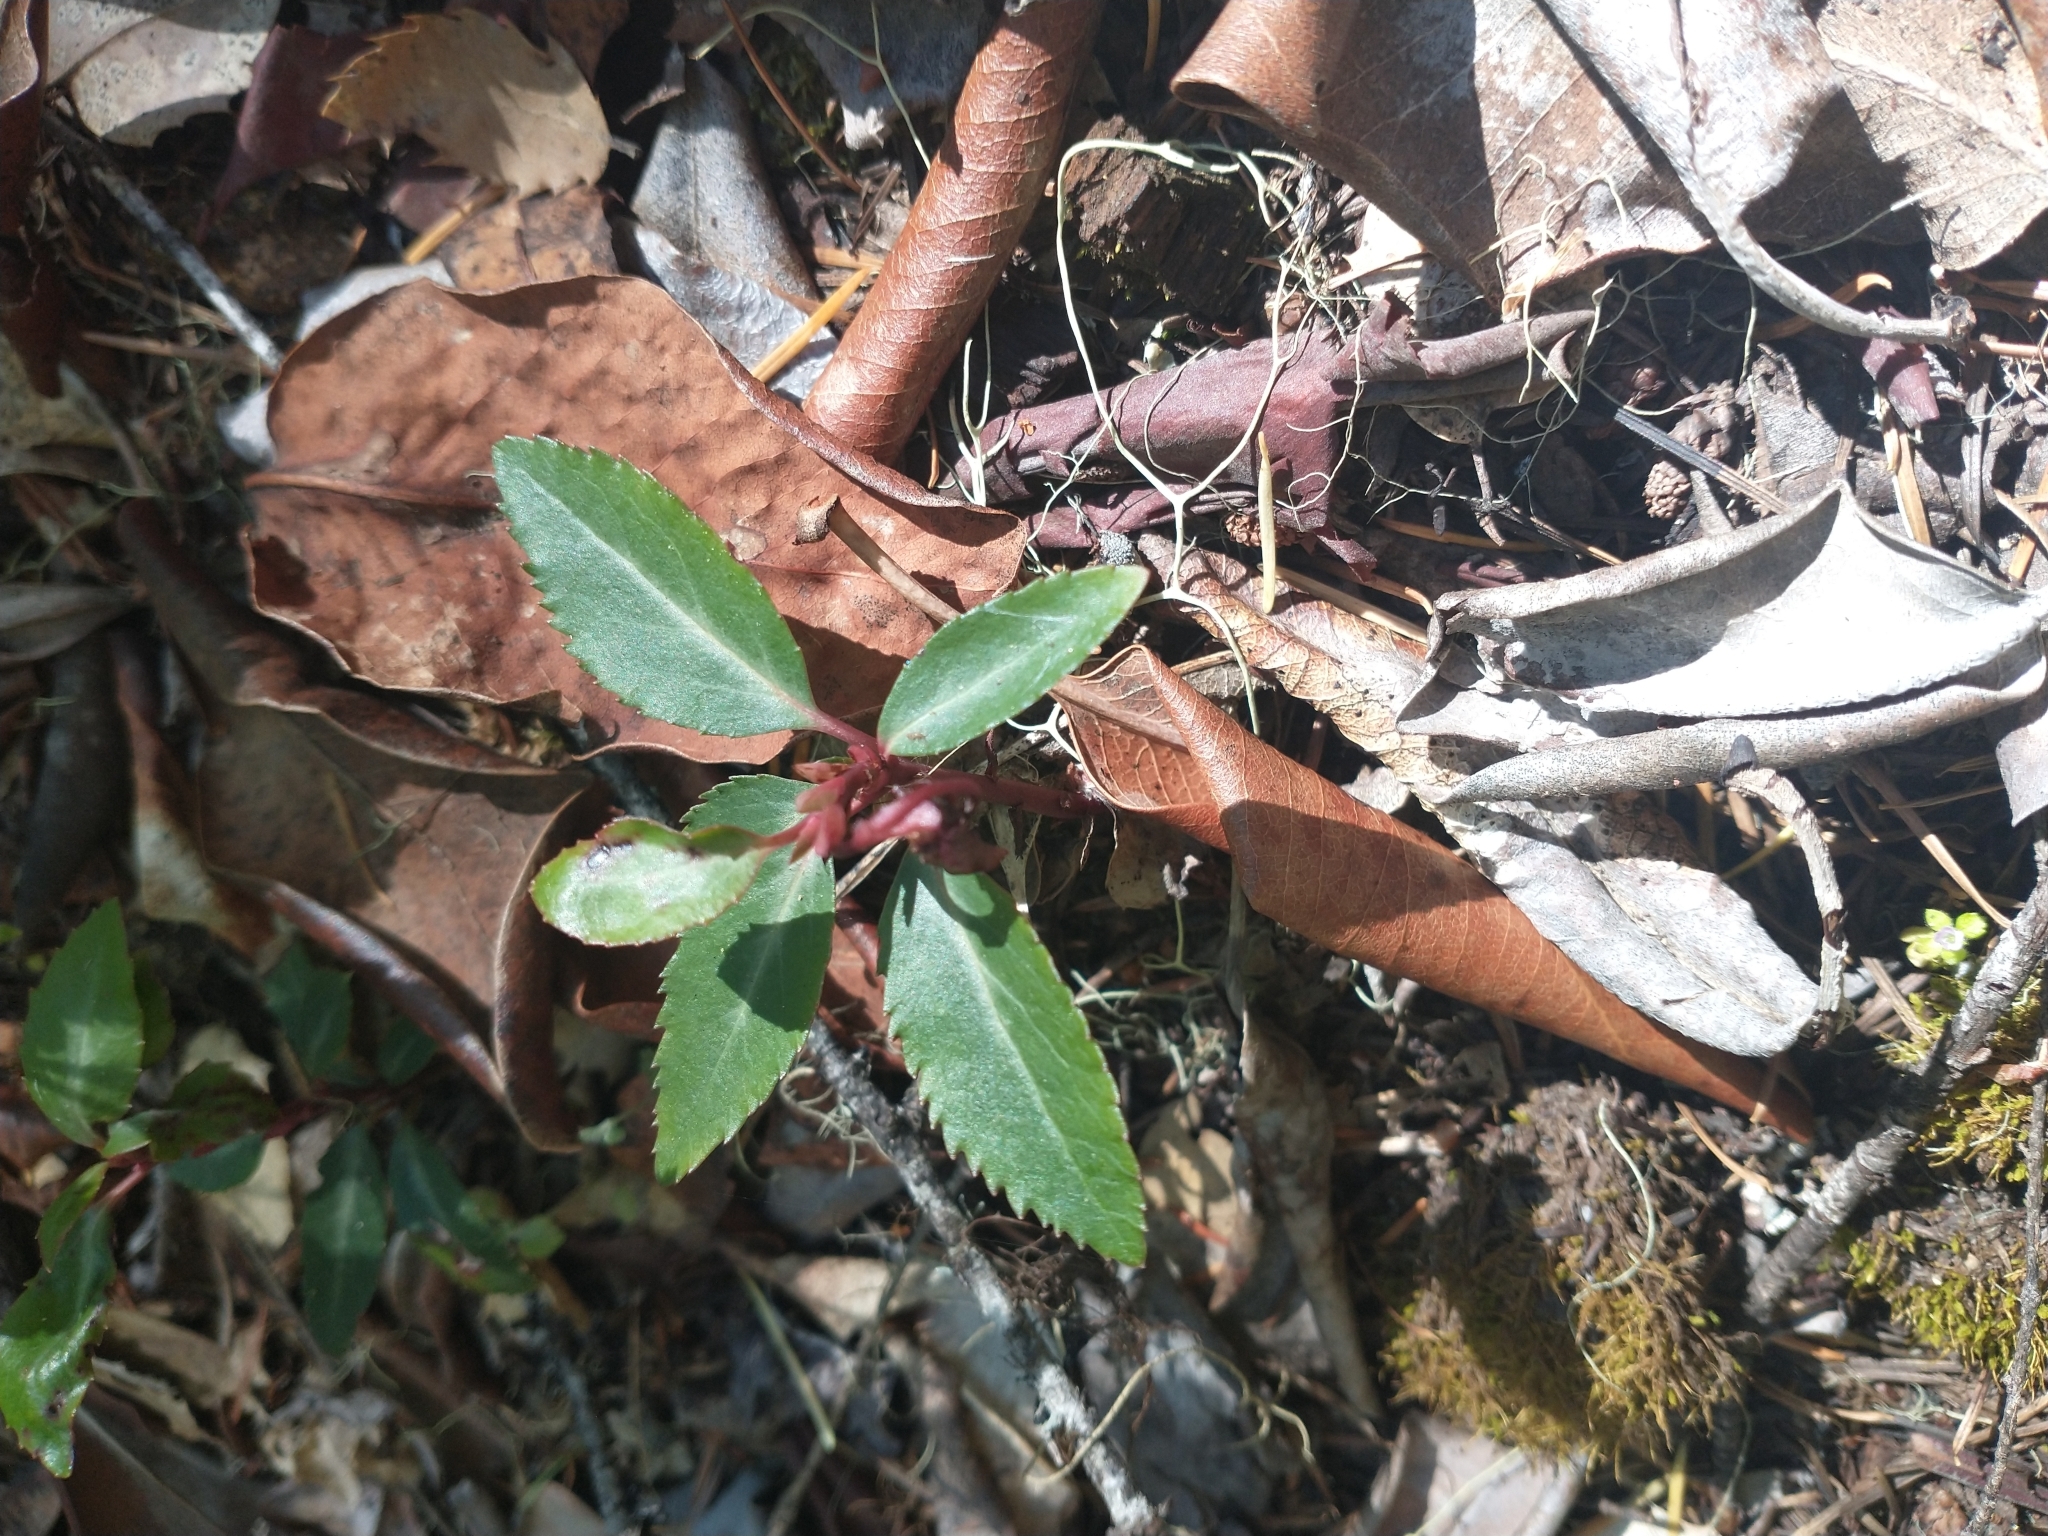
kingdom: Plantae
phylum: Tracheophyta
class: Magnoliopsida
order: Ericales
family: Ericaceae
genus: Chimaphila
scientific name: Chimaphila menziesii
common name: Menzies' pipsissewa
